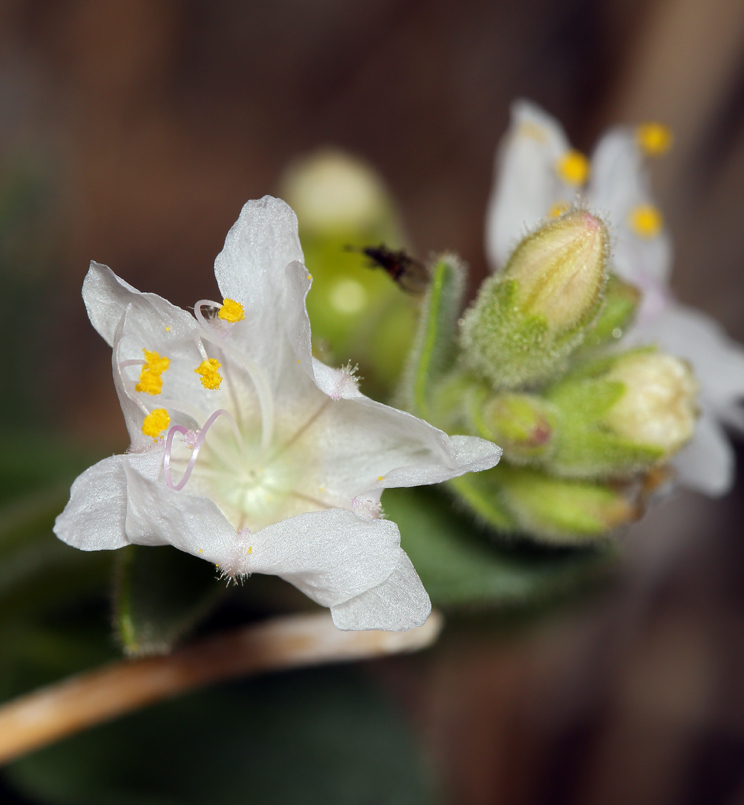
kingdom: Plantae
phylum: Tracheophyta
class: Magnoliopsida
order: Caryophyllales
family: Nyctaginaceae
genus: Mirabilis
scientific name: Mirabilis laevis
